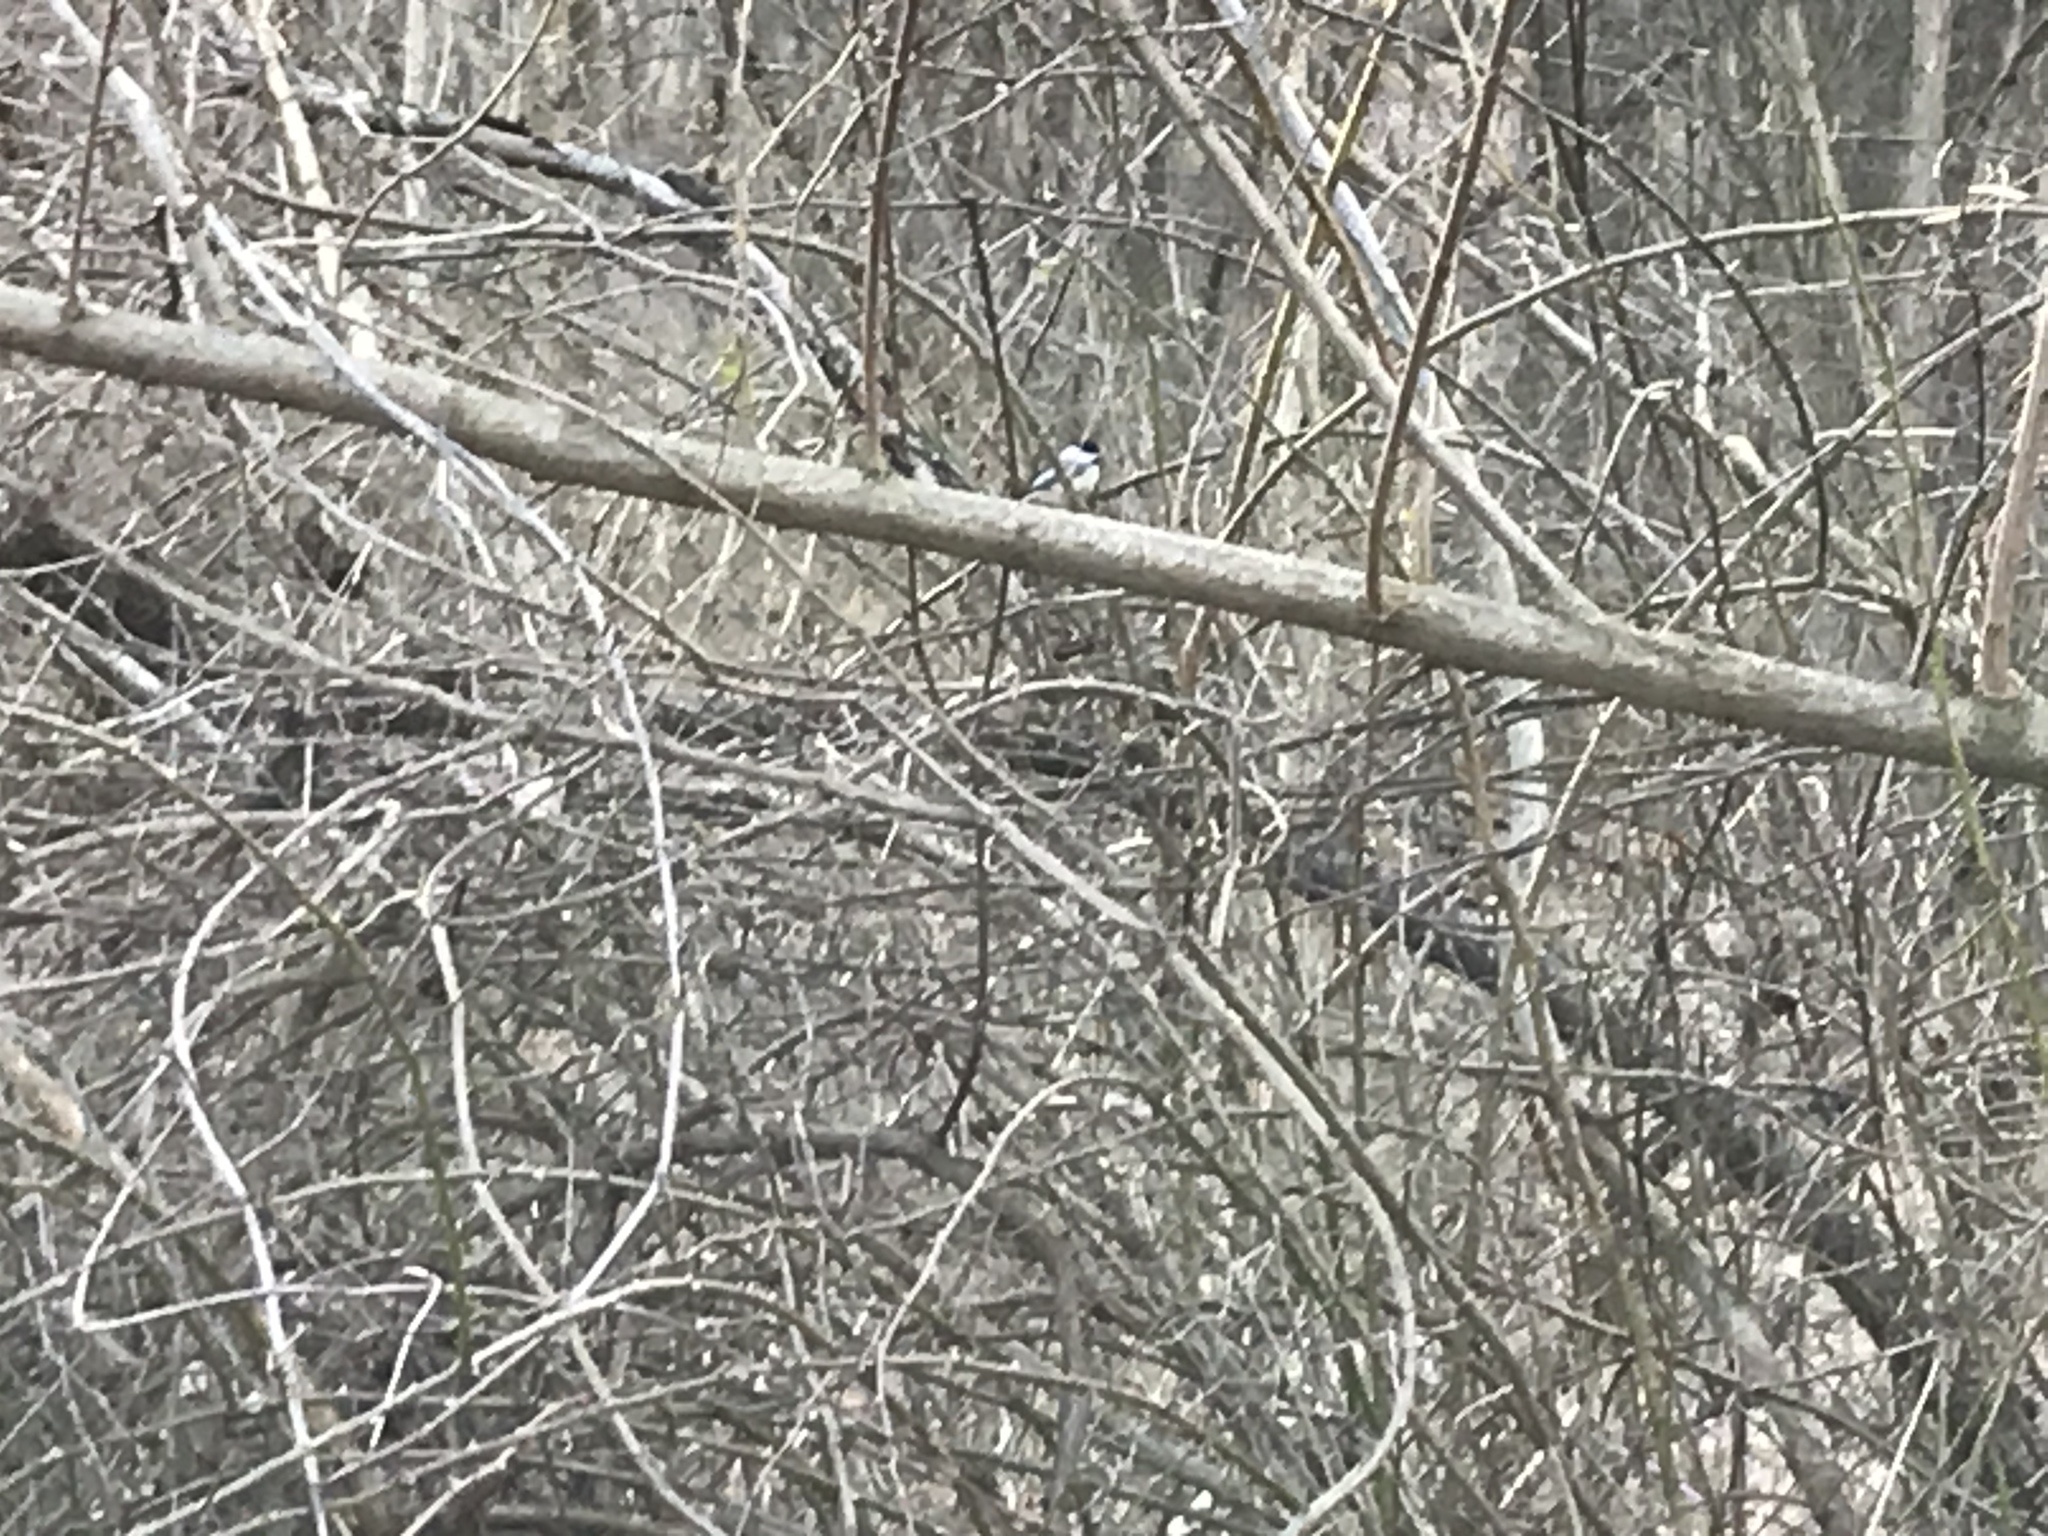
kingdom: Animalia
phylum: Chordata
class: Aves
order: Passeriformes
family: Paridae
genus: Poecile
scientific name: Poecile atricapillus
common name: Black-capped chickadee
